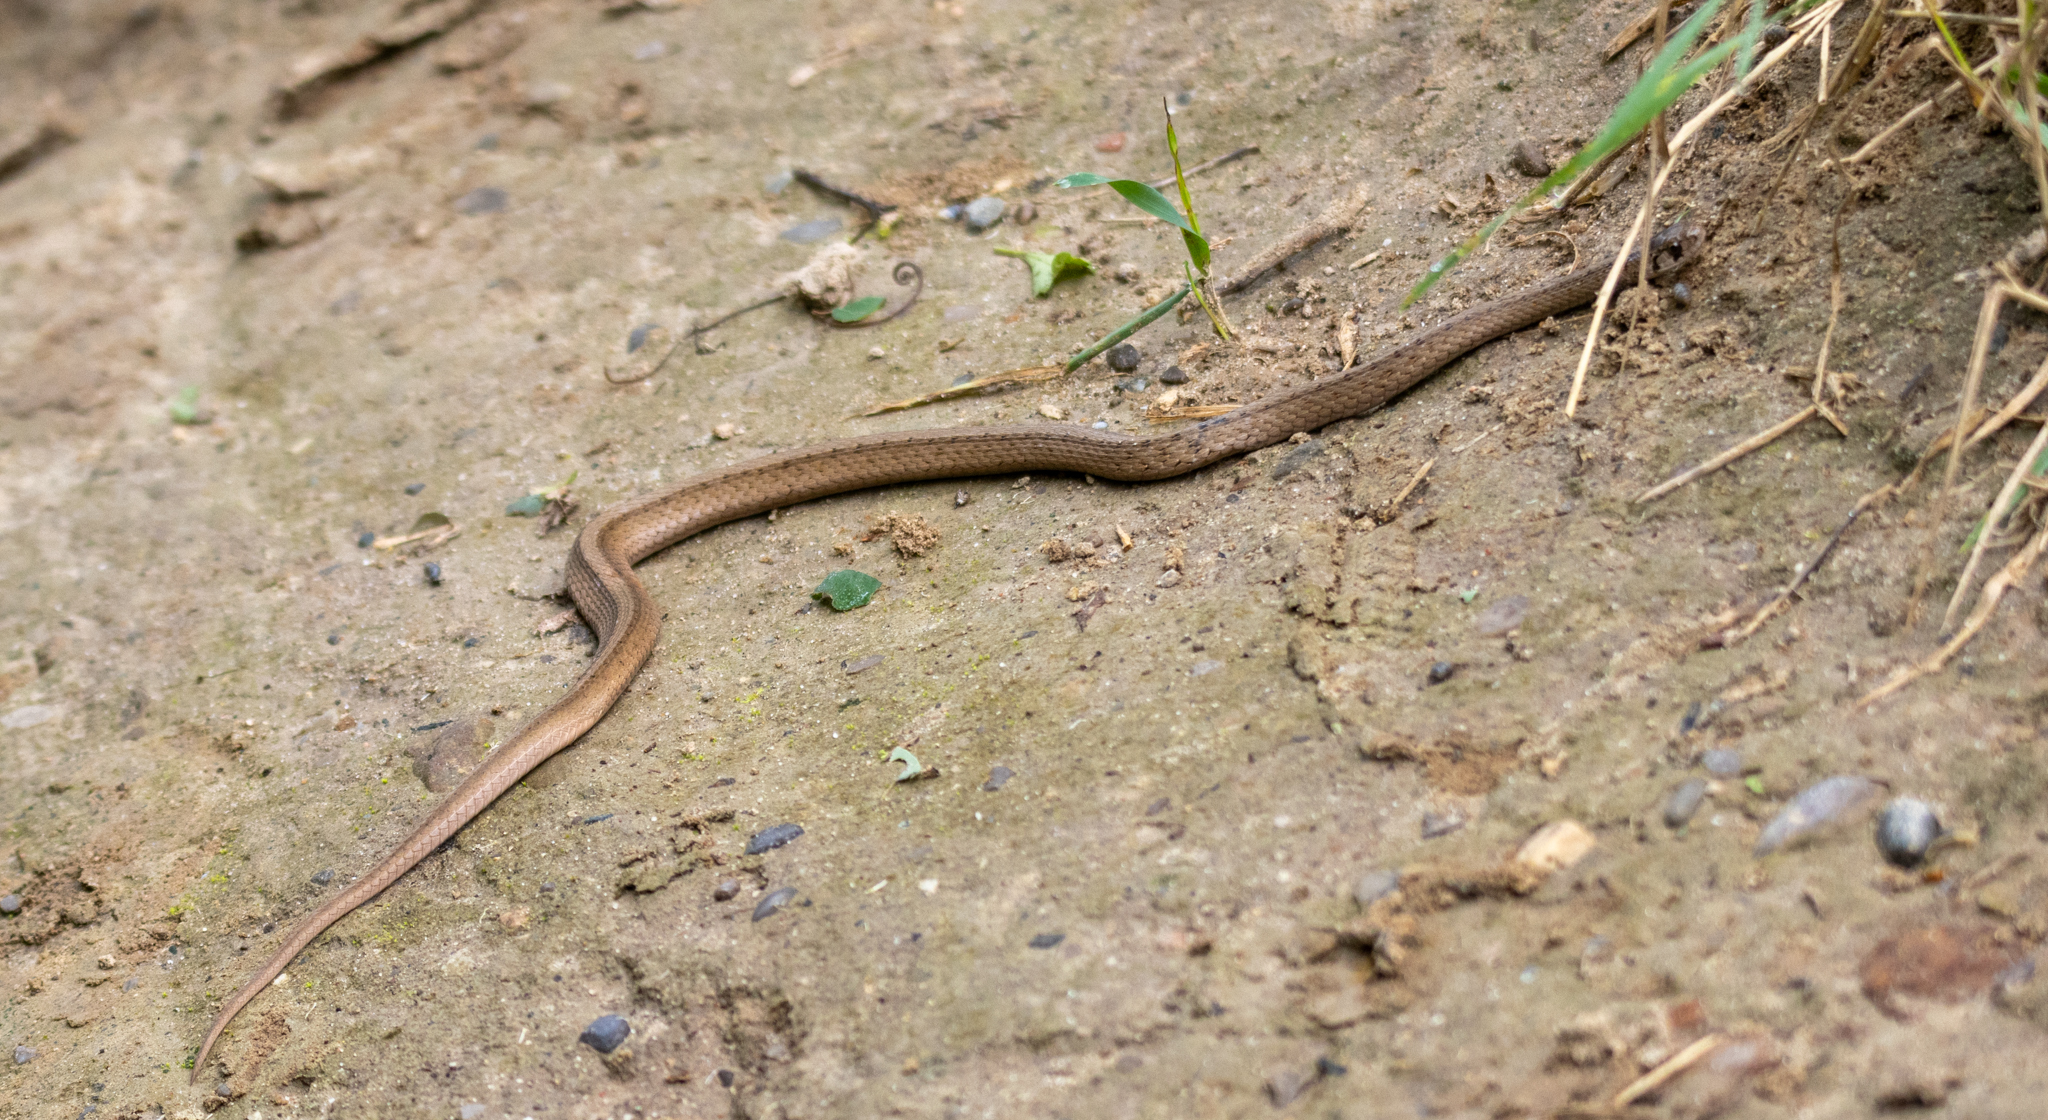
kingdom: Animalia
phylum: Chordata
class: Squamata
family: Colubridae
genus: Storeria
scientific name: Storeria dekayi
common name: (dekay’s) brown snake
